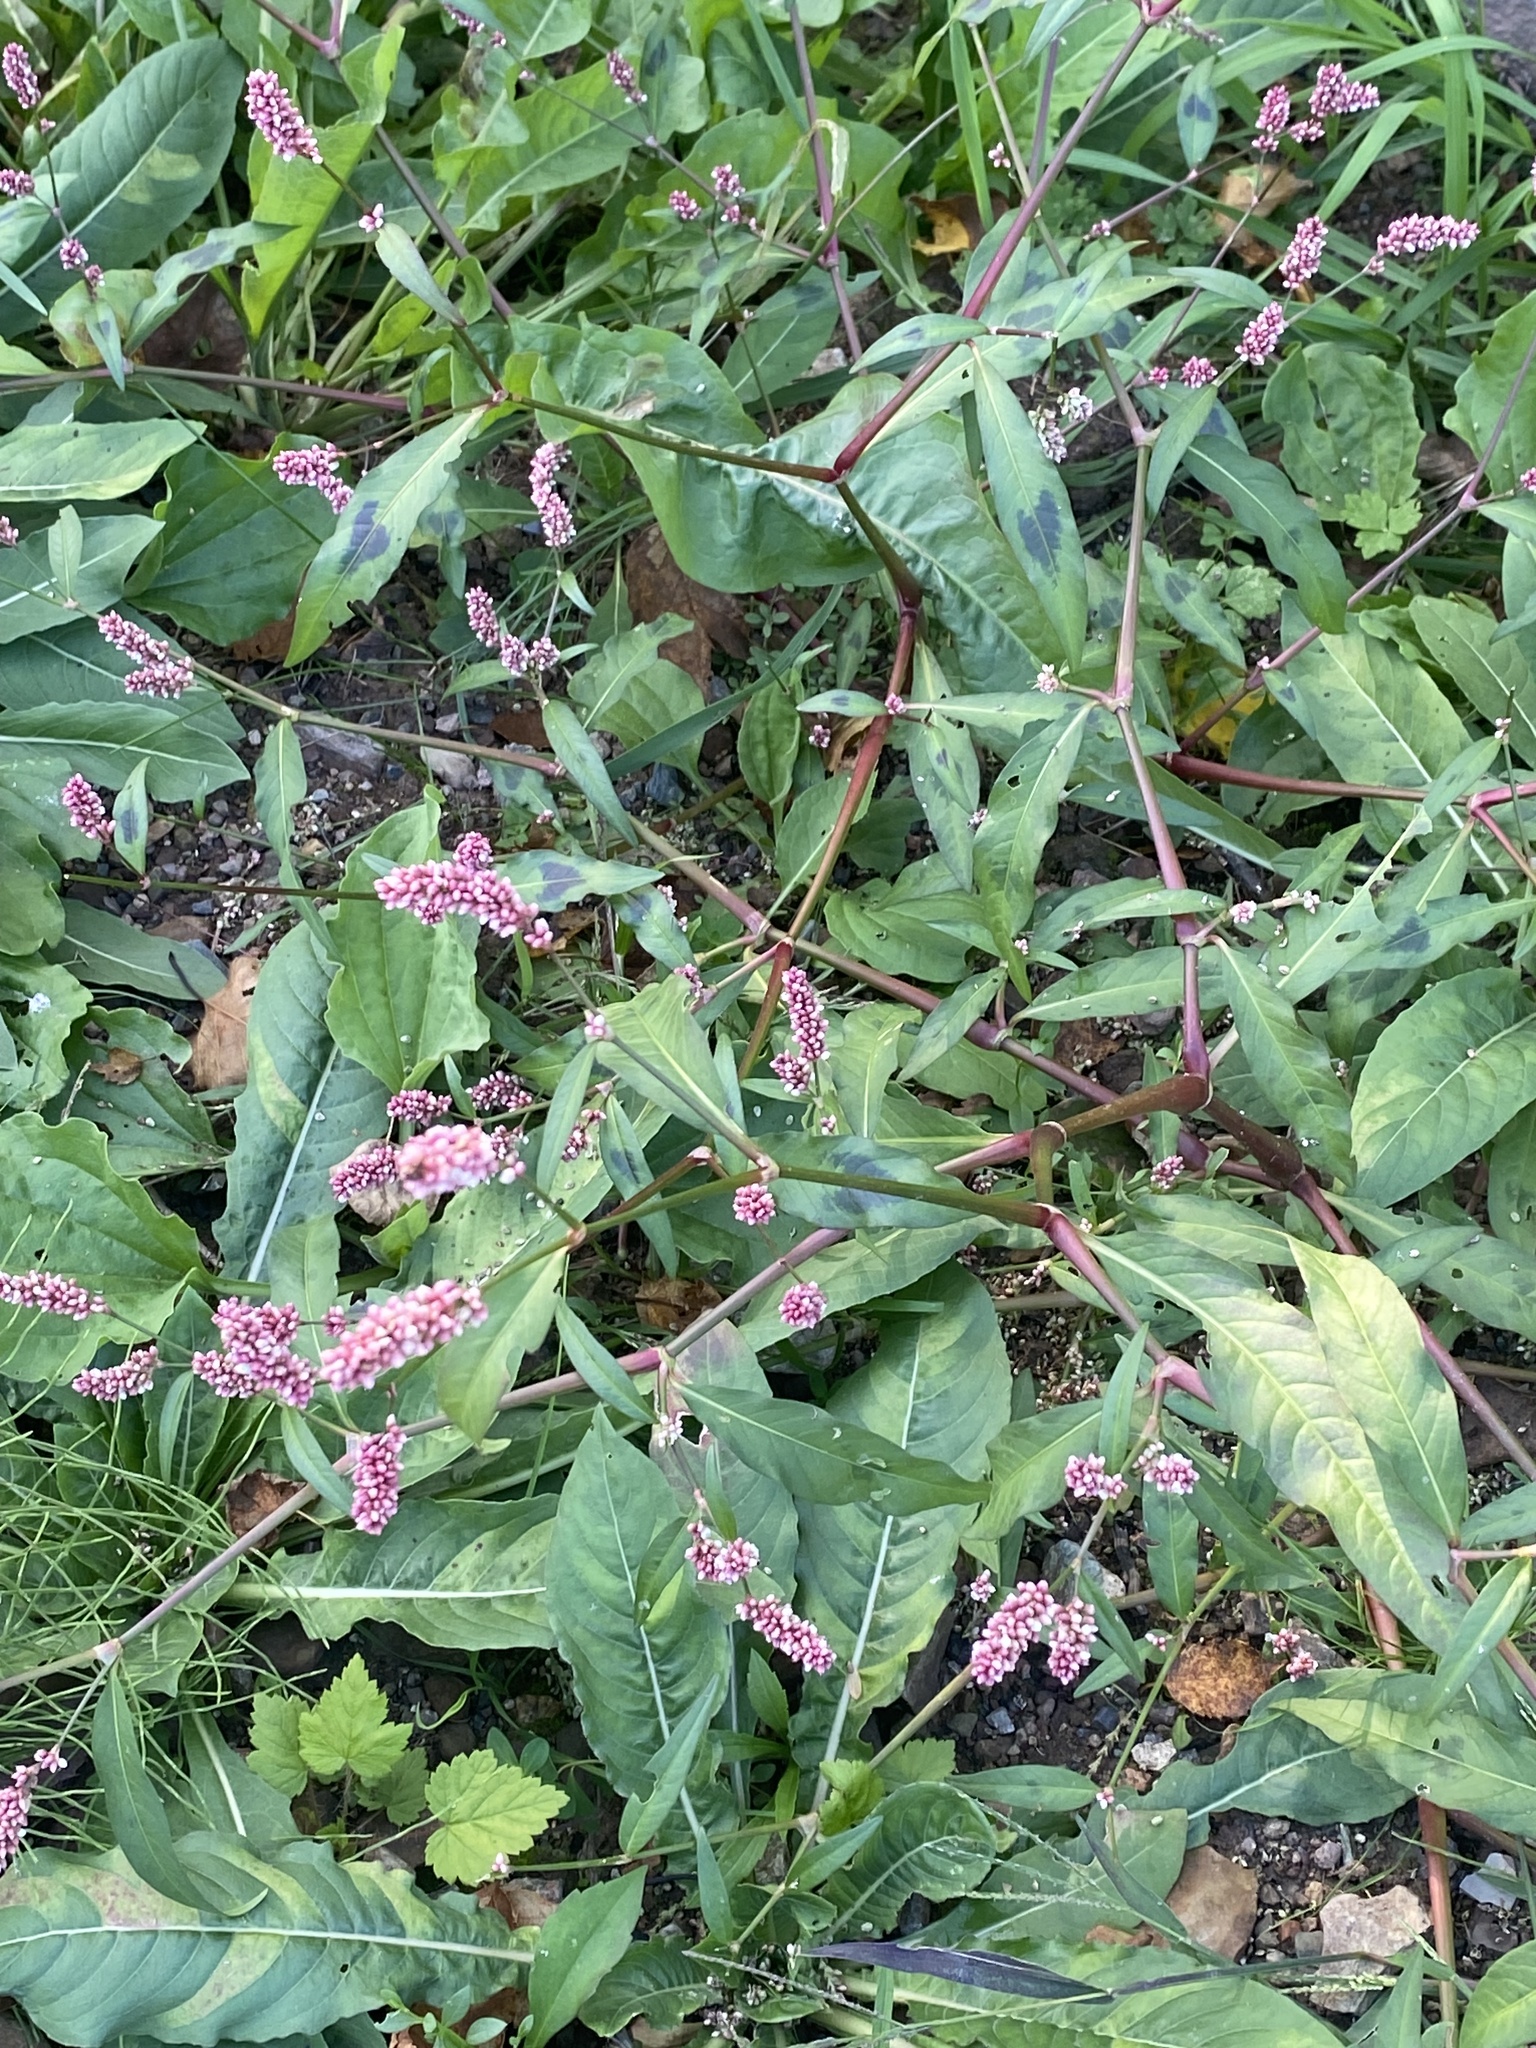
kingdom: Plantae
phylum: Tracheophyta
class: Magnoliopsida
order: Caryophyllales
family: Polygonaceae
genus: Persicaria
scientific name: Persicaria maculosa
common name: Redshank
